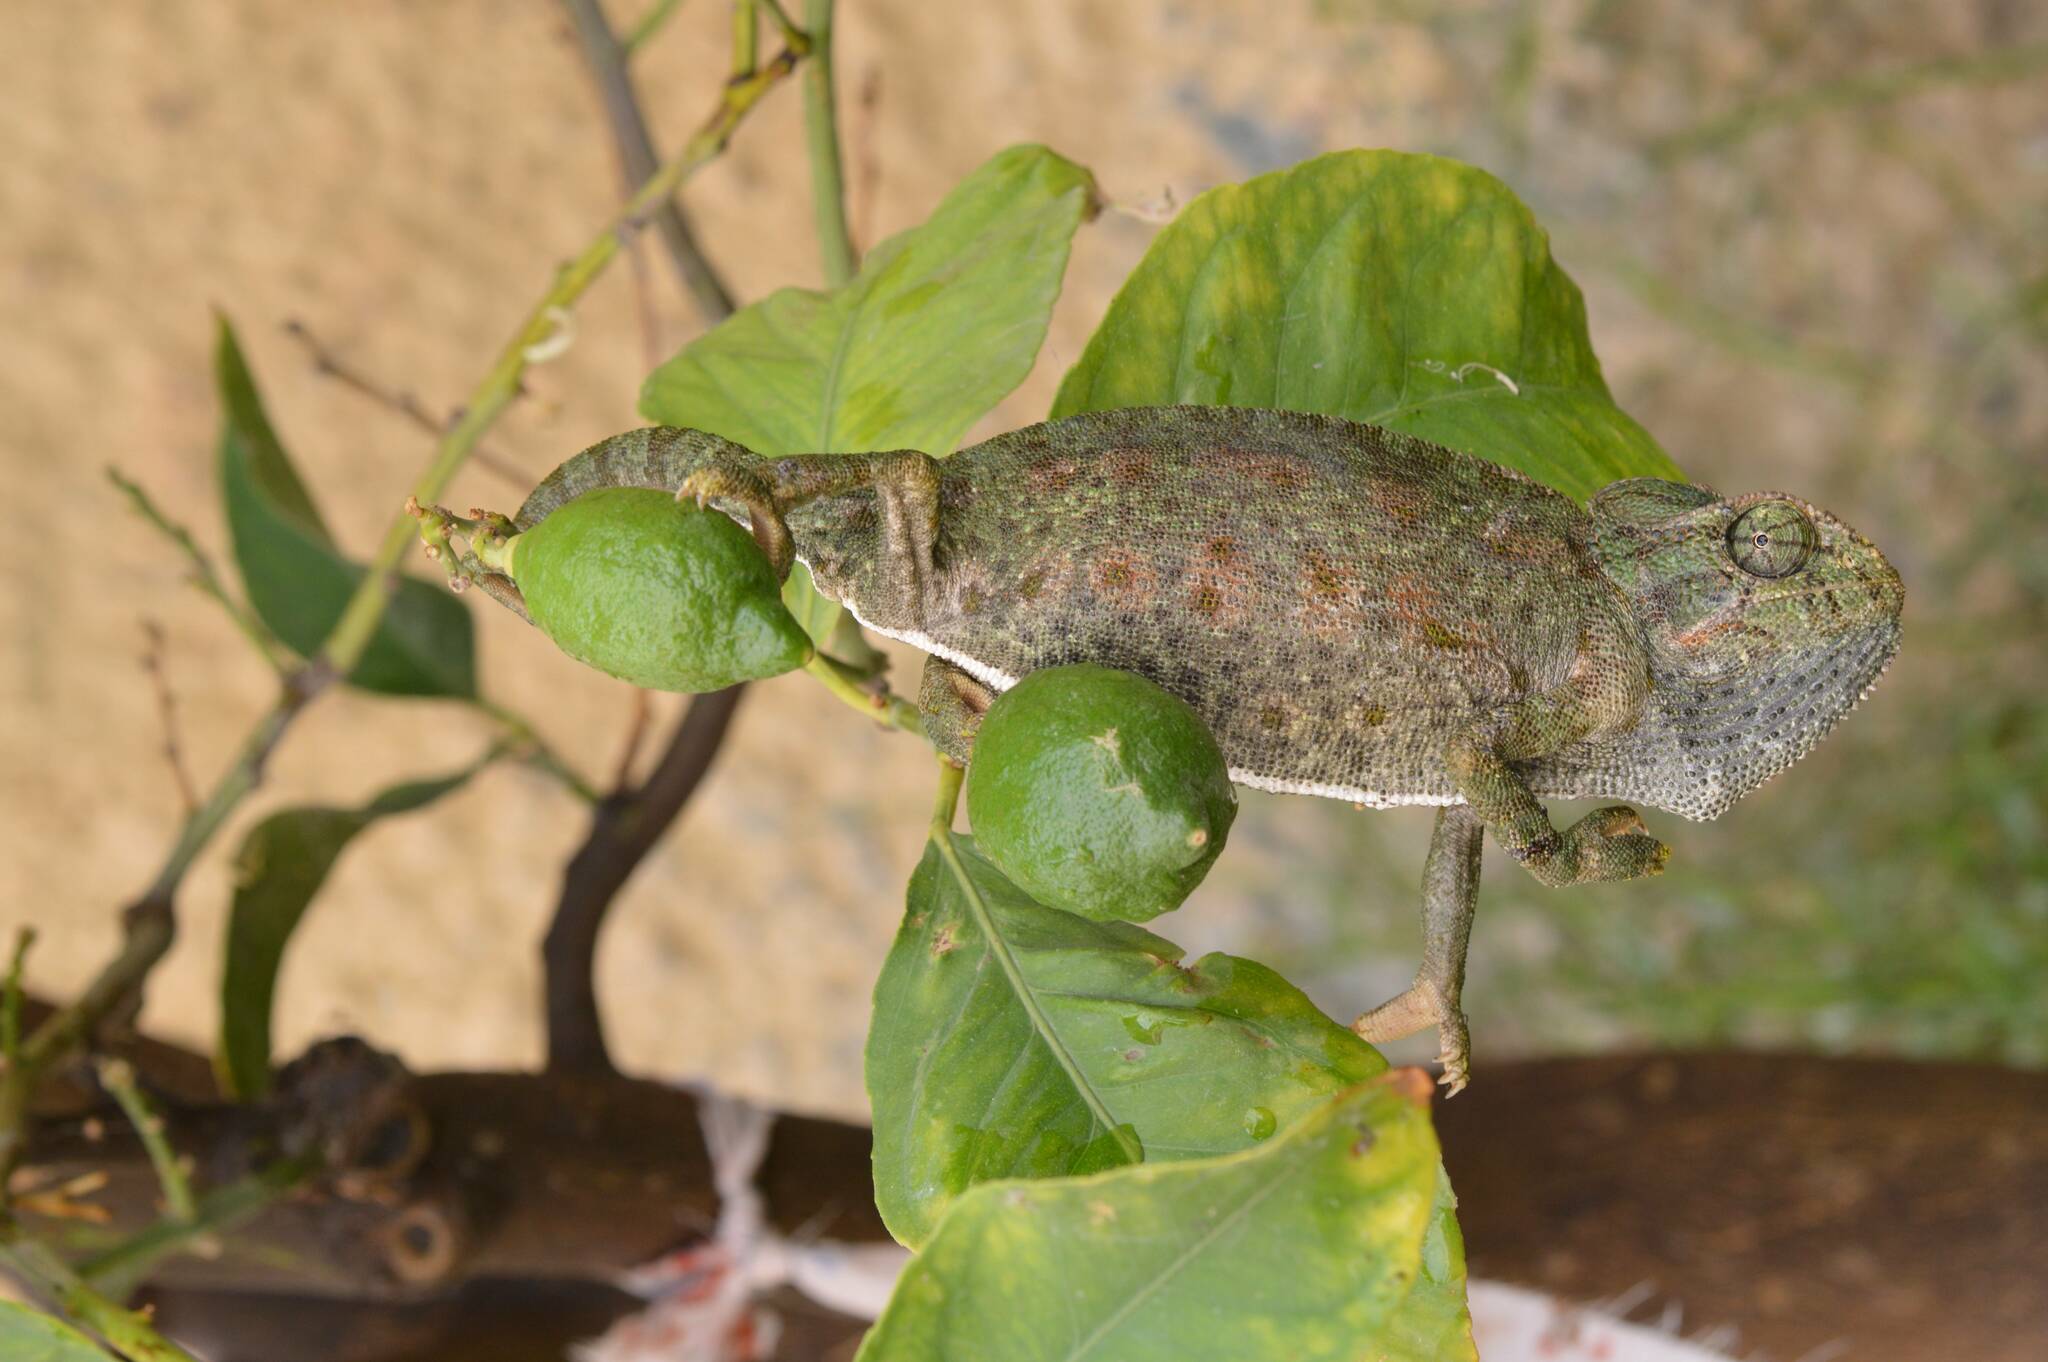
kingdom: Animalia
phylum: Chordata
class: Squamata
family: Chamaeleonidae
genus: Chamaeleo
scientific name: Chamaeleo chamaeleon
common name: Mediterranean chameleon
